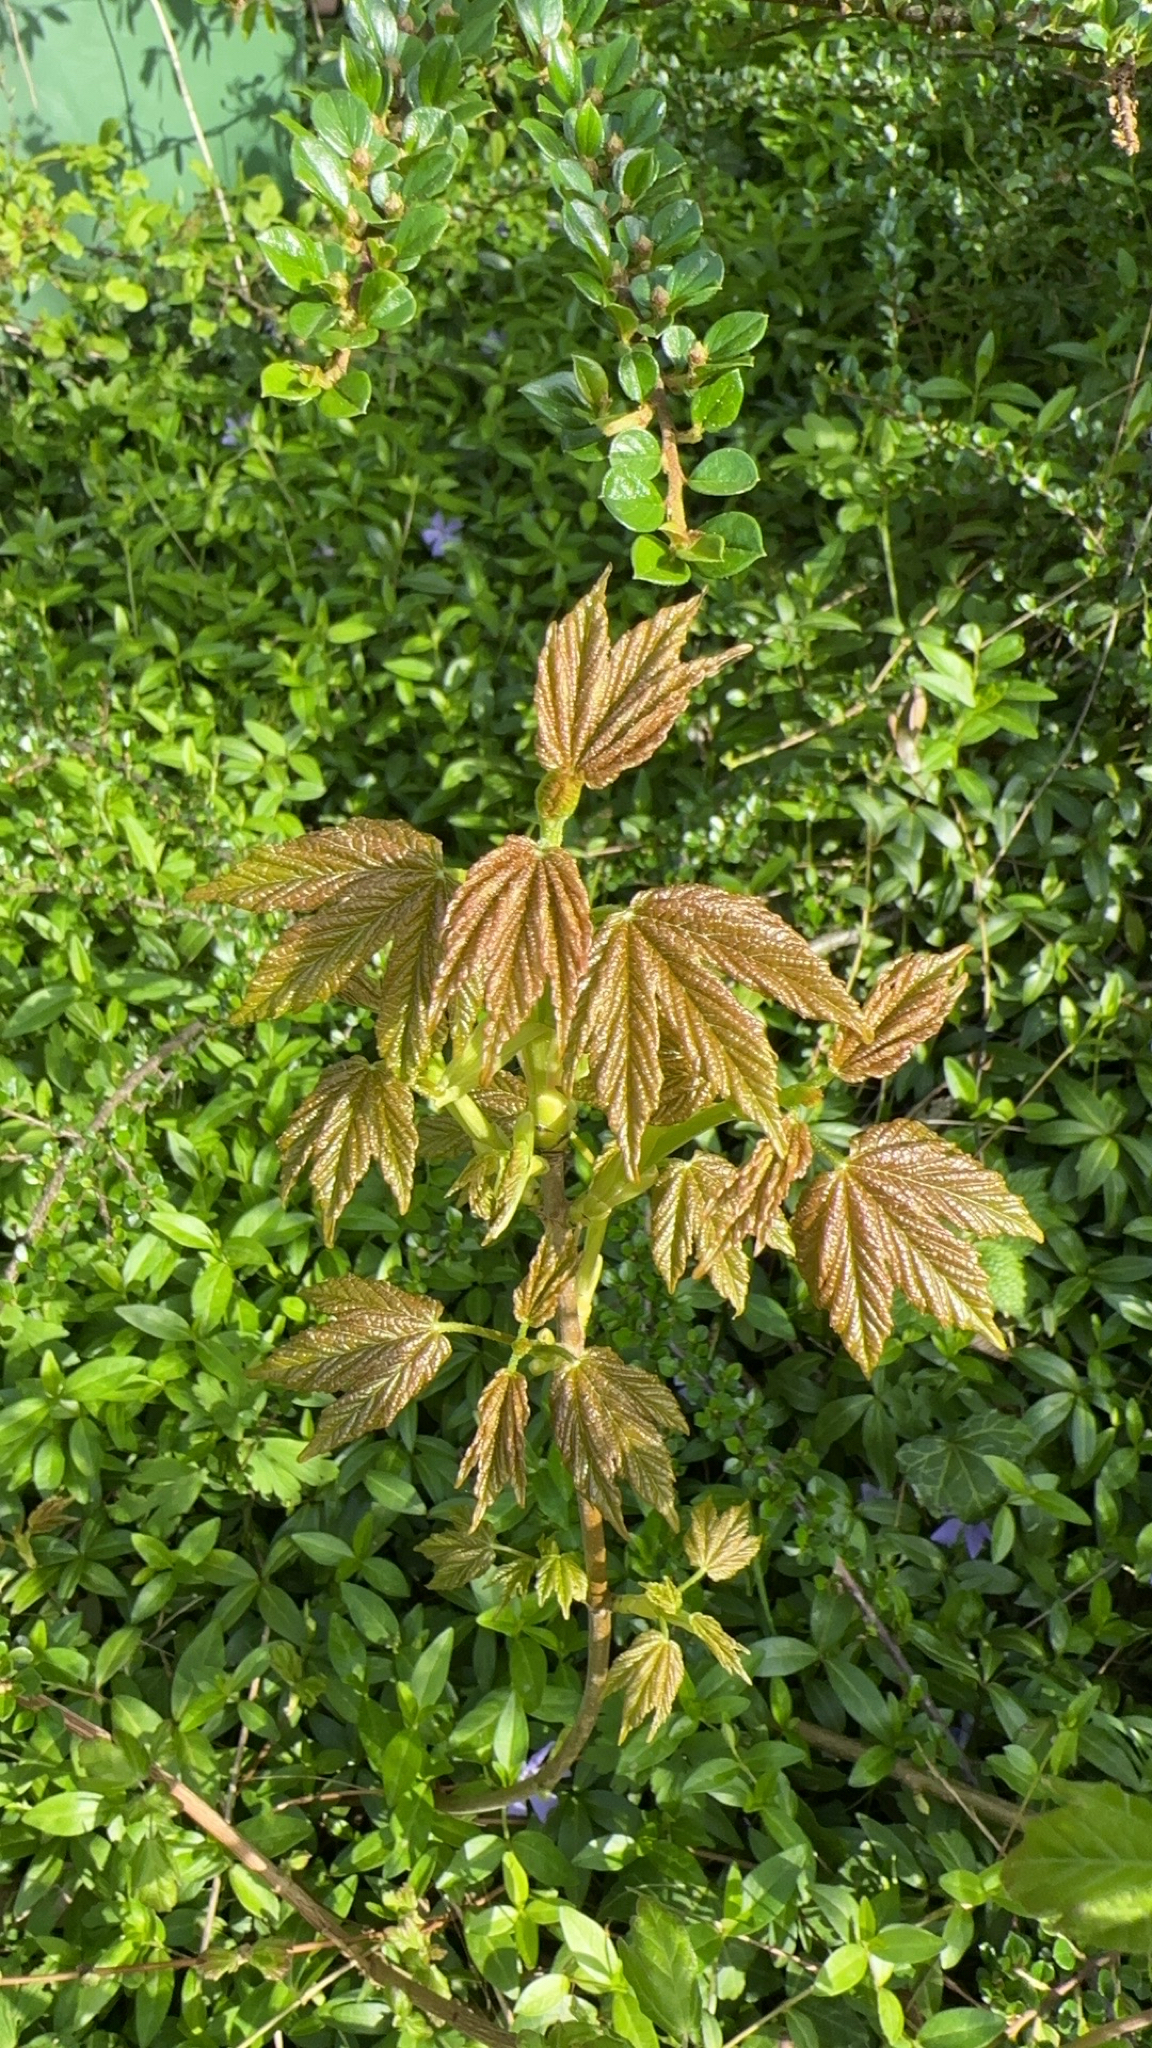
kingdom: Plantae
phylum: Tracheophyta
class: Magnoliopsida
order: Sapindales
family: Sapindaceae
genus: Acer
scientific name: Acer pseudoplatanus
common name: Sycamore
